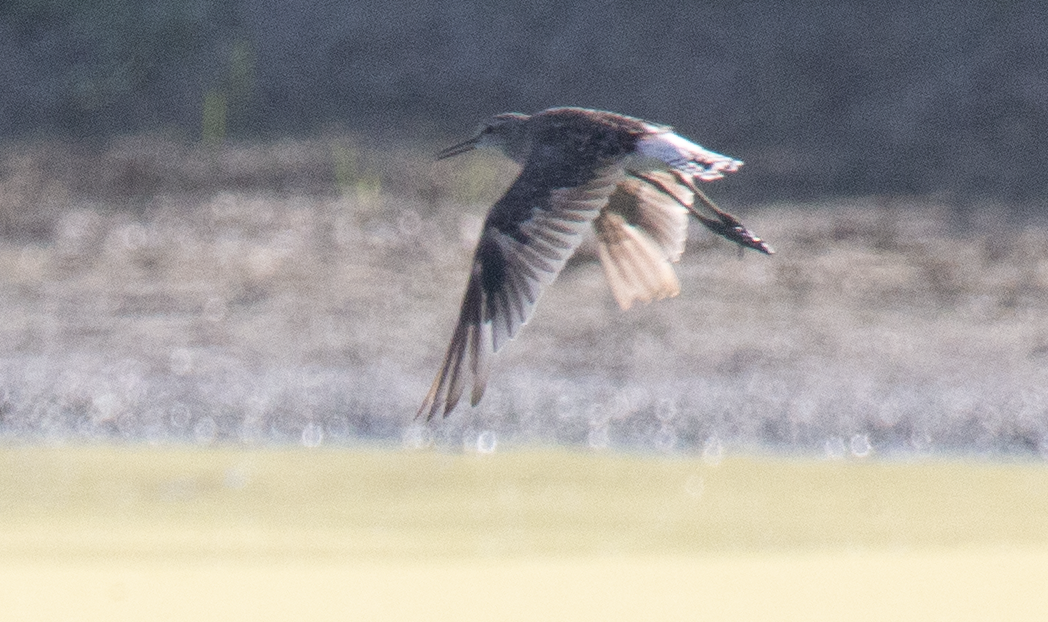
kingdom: Animalia
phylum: Chordata
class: Aves
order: Charadriiformes
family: Scolopacidae
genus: Tringa
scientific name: Tringa glareola
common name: Wood sandpiper
